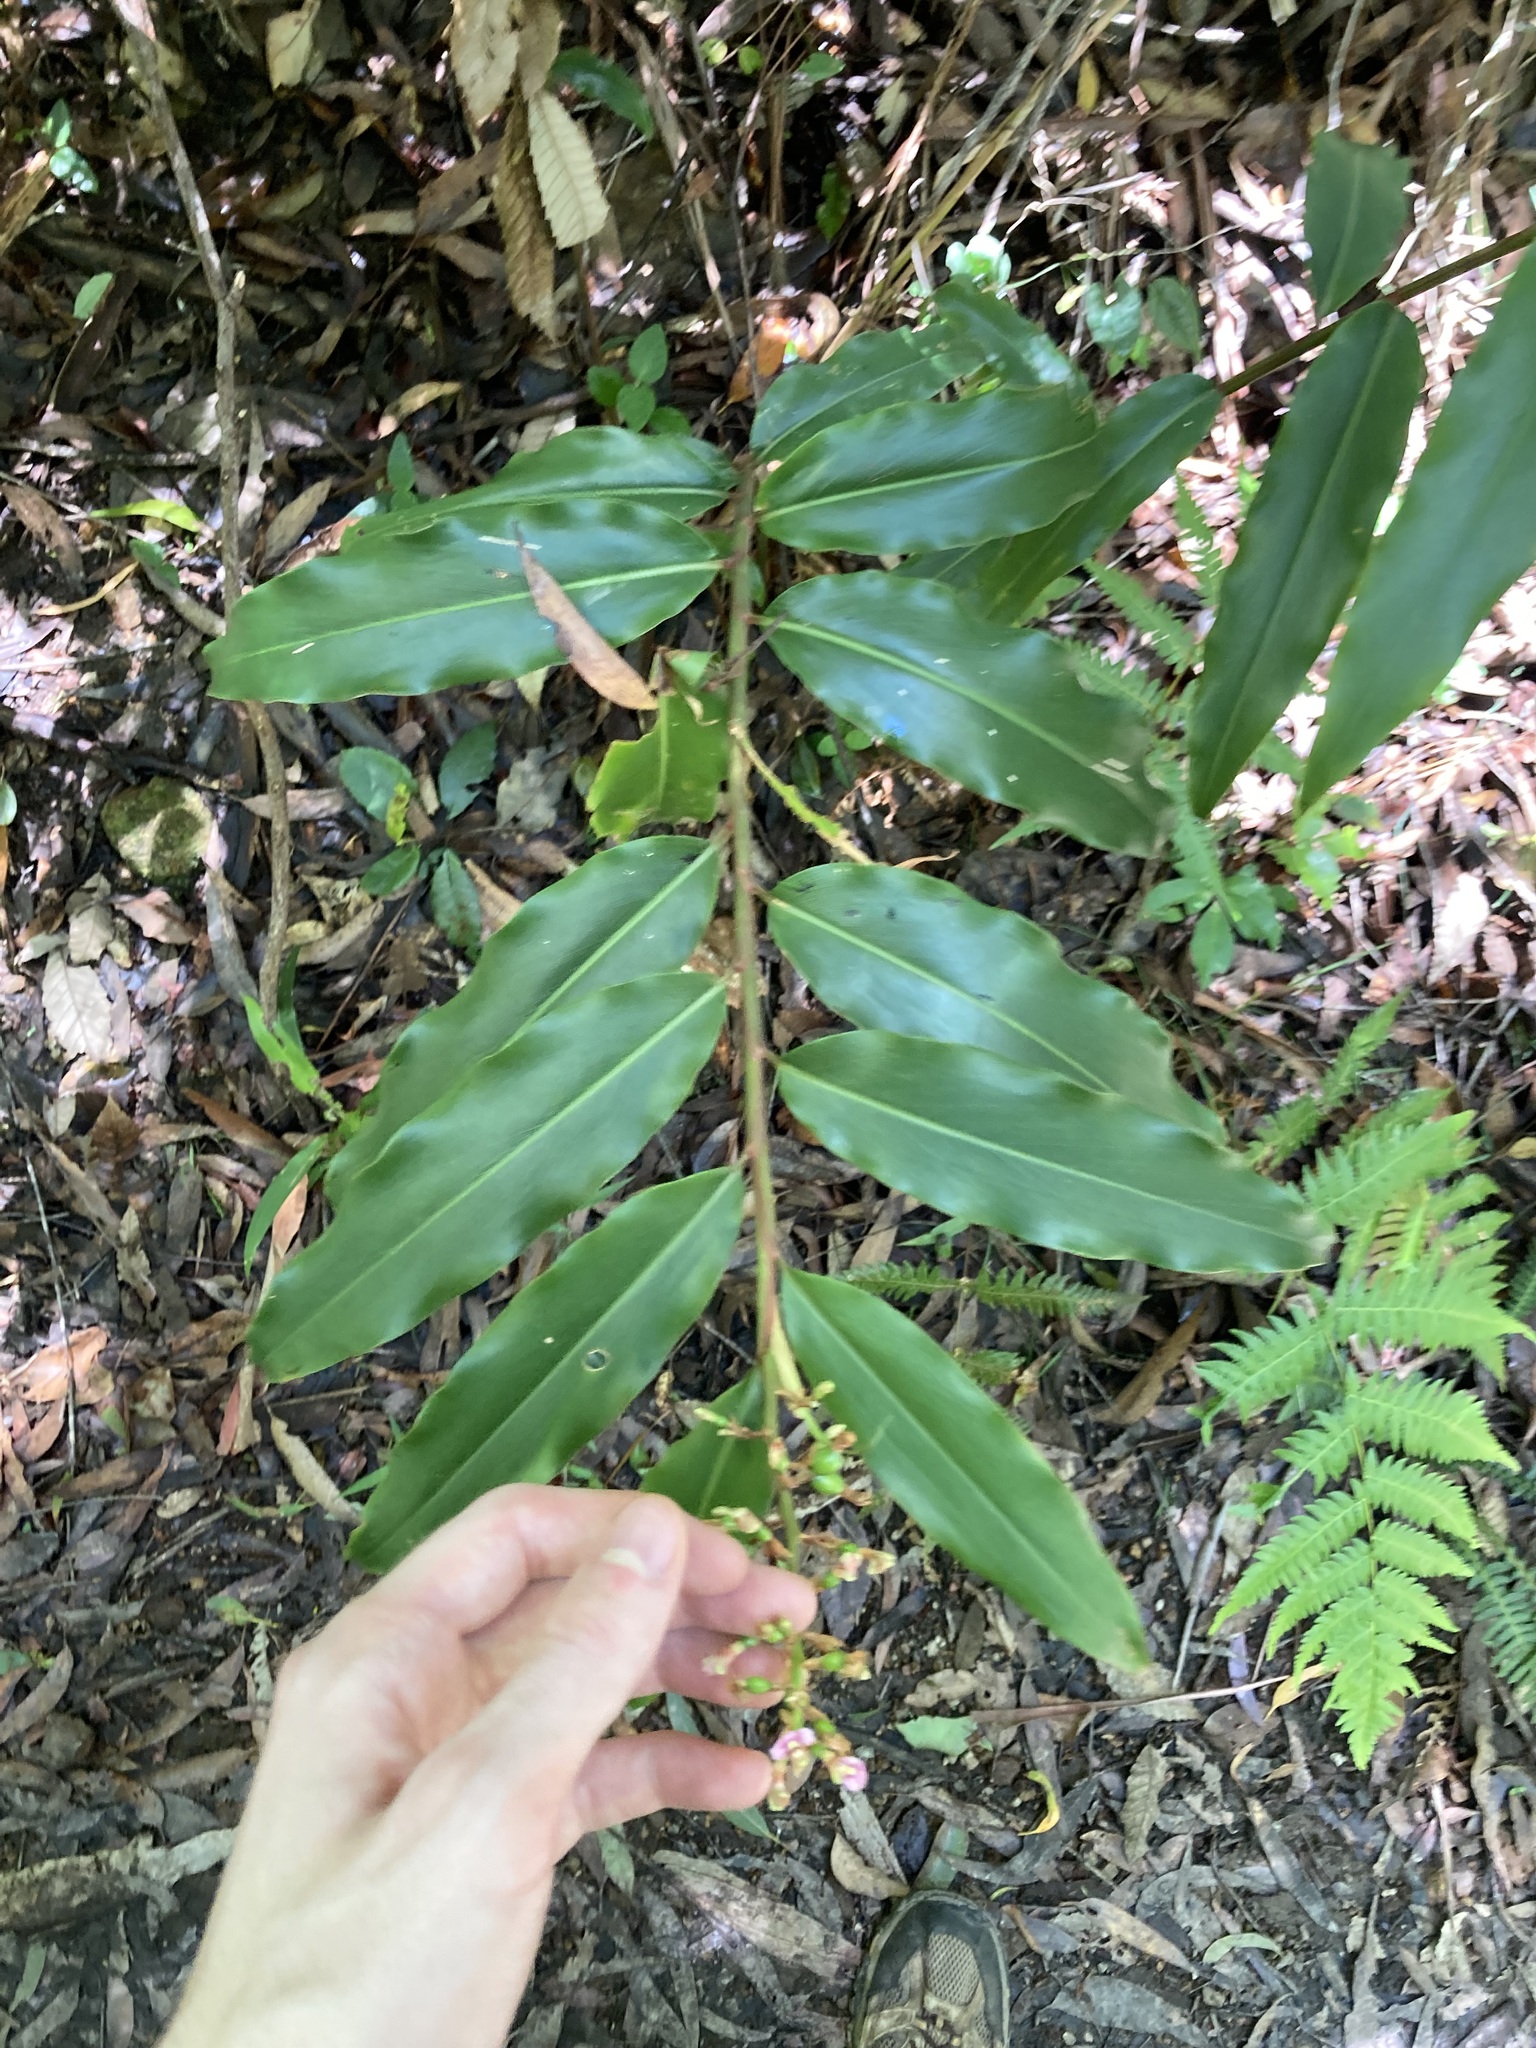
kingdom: Plantae
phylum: Tracheophyta
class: Liliopsida
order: Zingiberales
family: Zingiberaceae
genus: Alpinia
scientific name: Alpinia arundelliana
